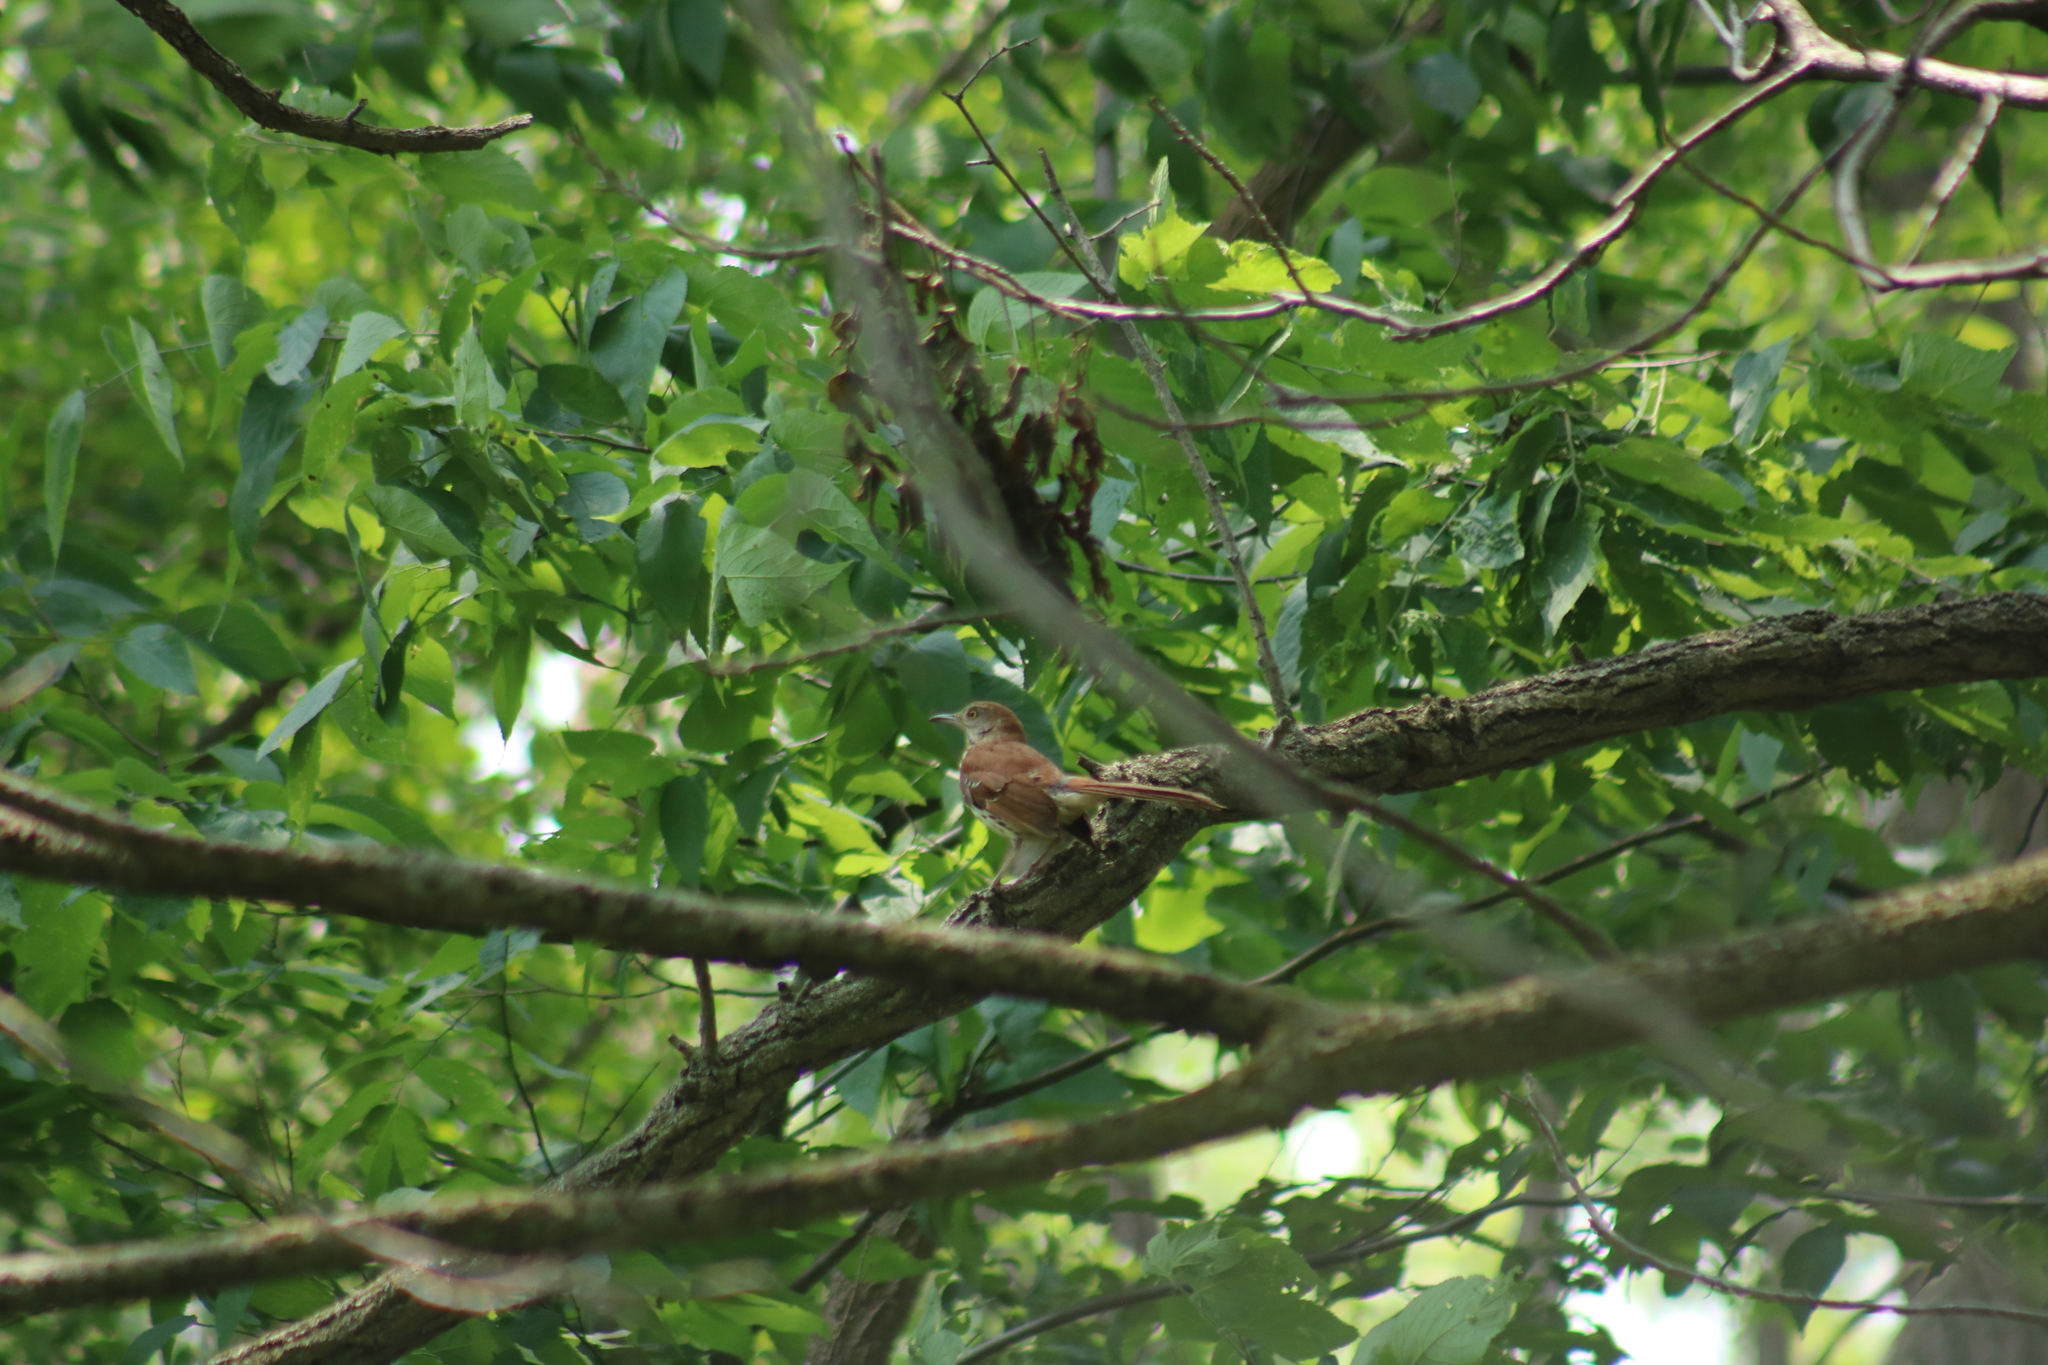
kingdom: Animalia
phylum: Chordata
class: Aves
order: Passeriformes
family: Mimidae
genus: Toxostoma
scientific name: Toxostoma rufum
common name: Brown thrasher
